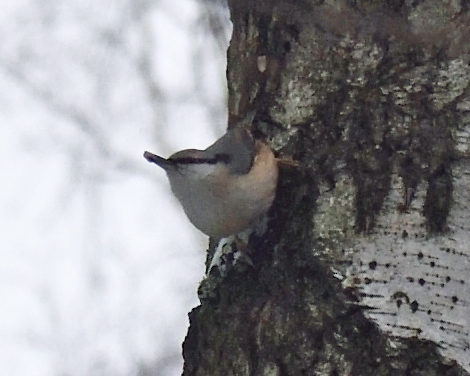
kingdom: Animalia
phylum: Chordata
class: Aves
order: Passeriformes
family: Sittidae
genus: Sitta
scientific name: Sitta europaea
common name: Eurasian nuthatch
